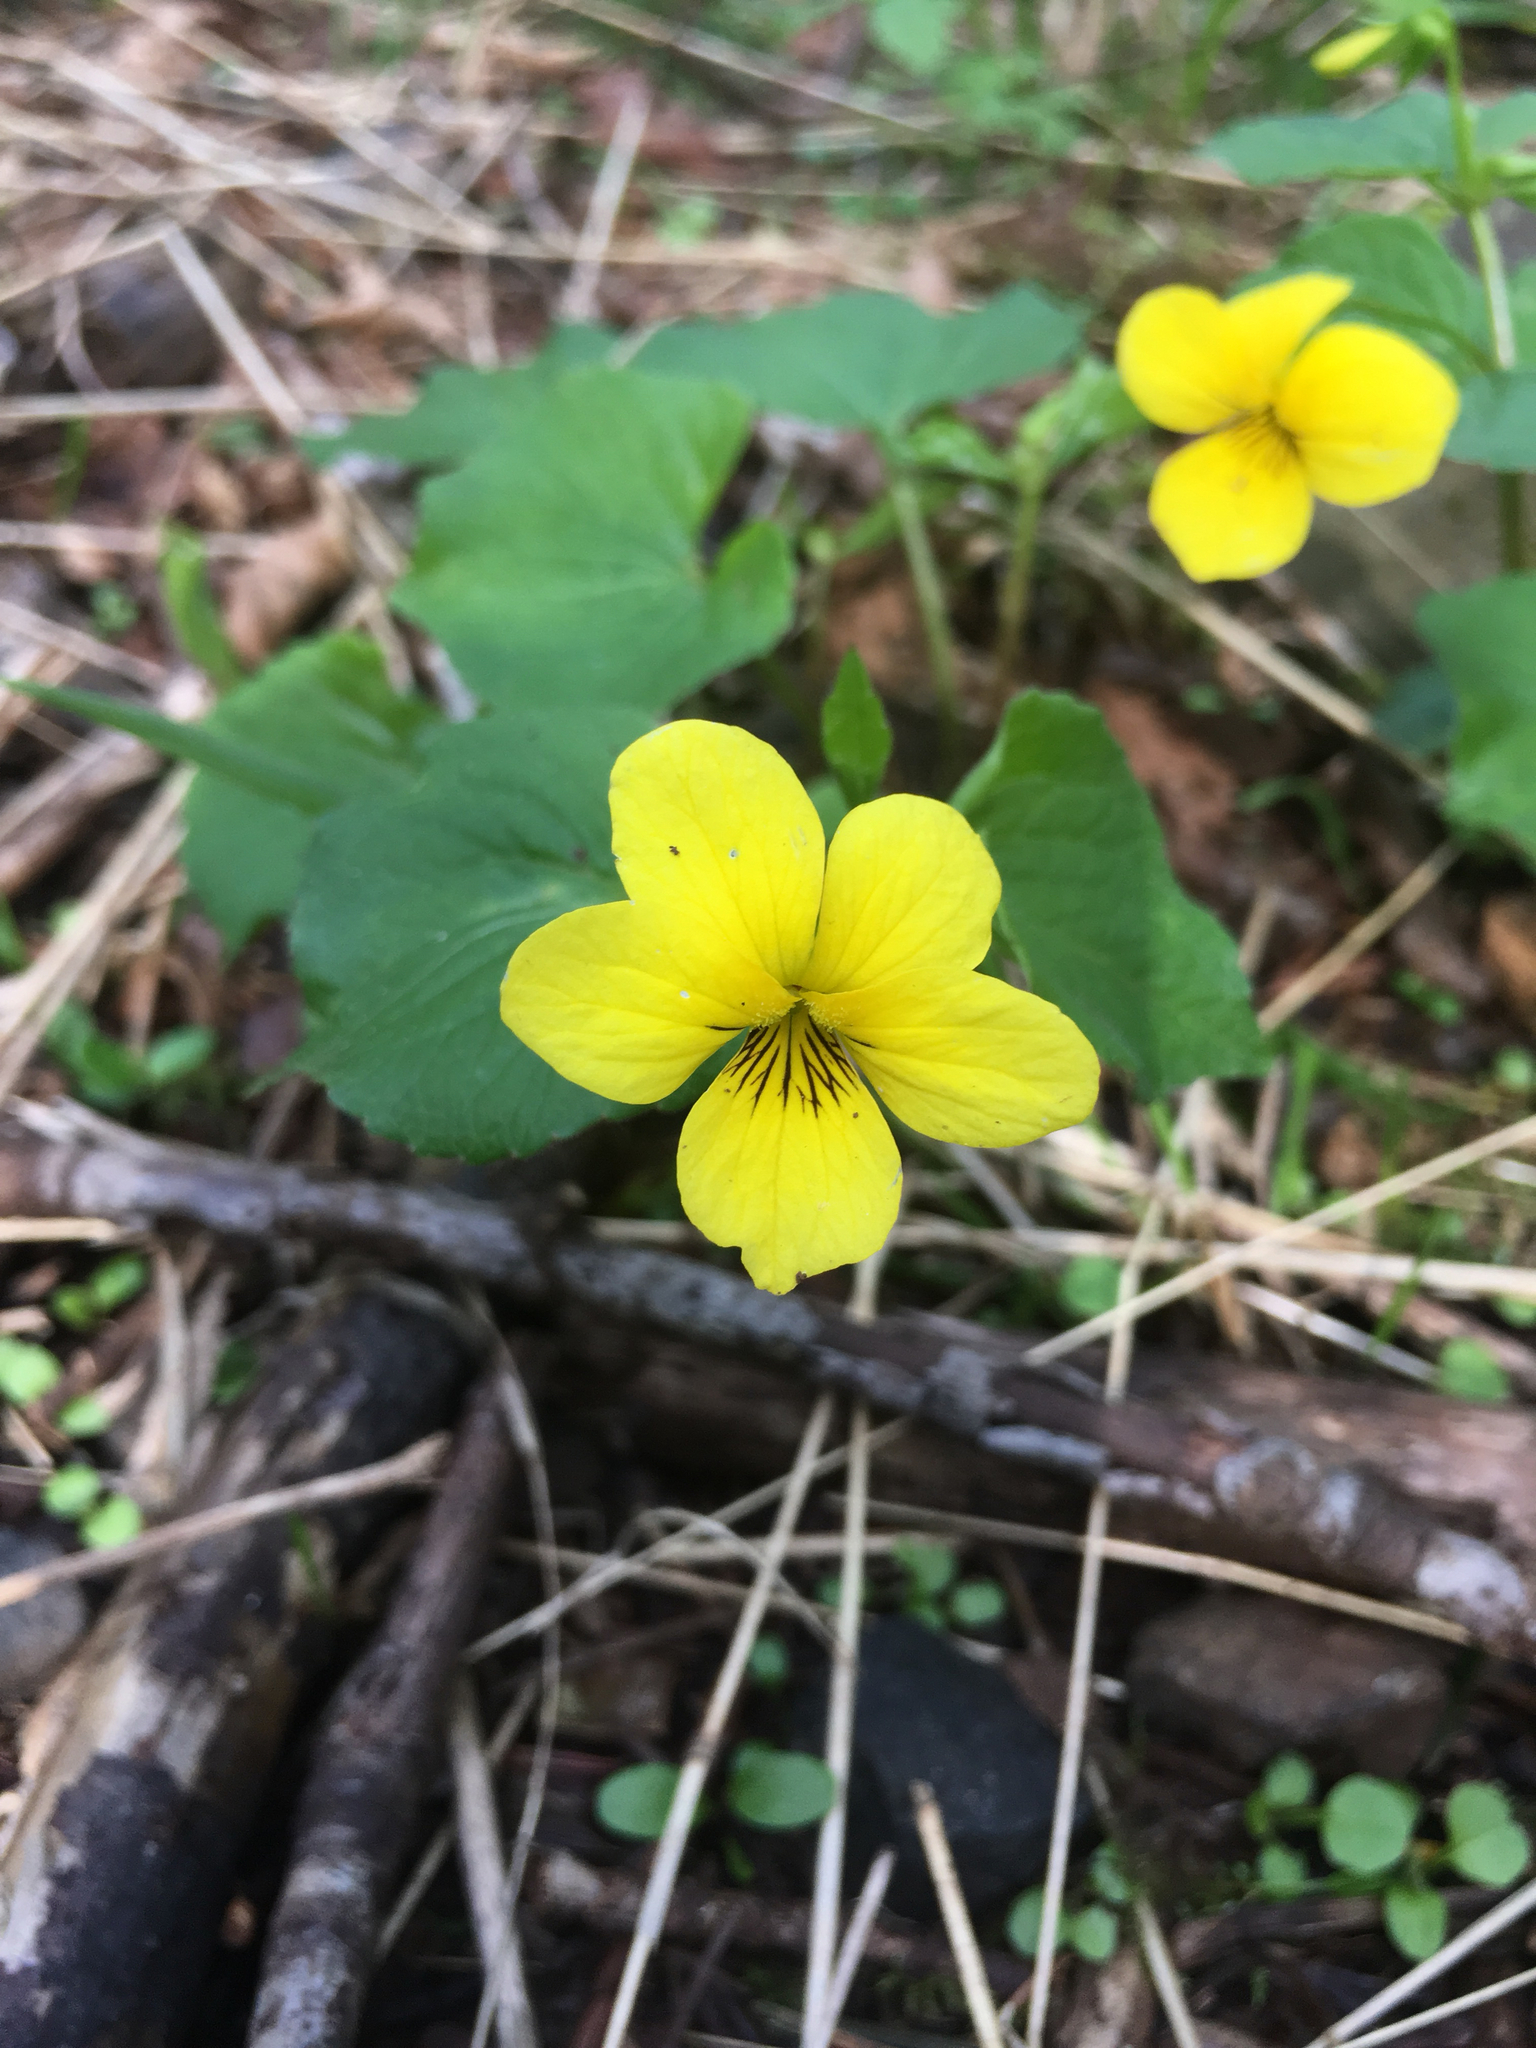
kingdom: Plantae
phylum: Tracheophyta
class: Magnoliopsida
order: Malpighiales
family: Violaceae
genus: Viola
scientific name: Viola glabella
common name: Stream violet
